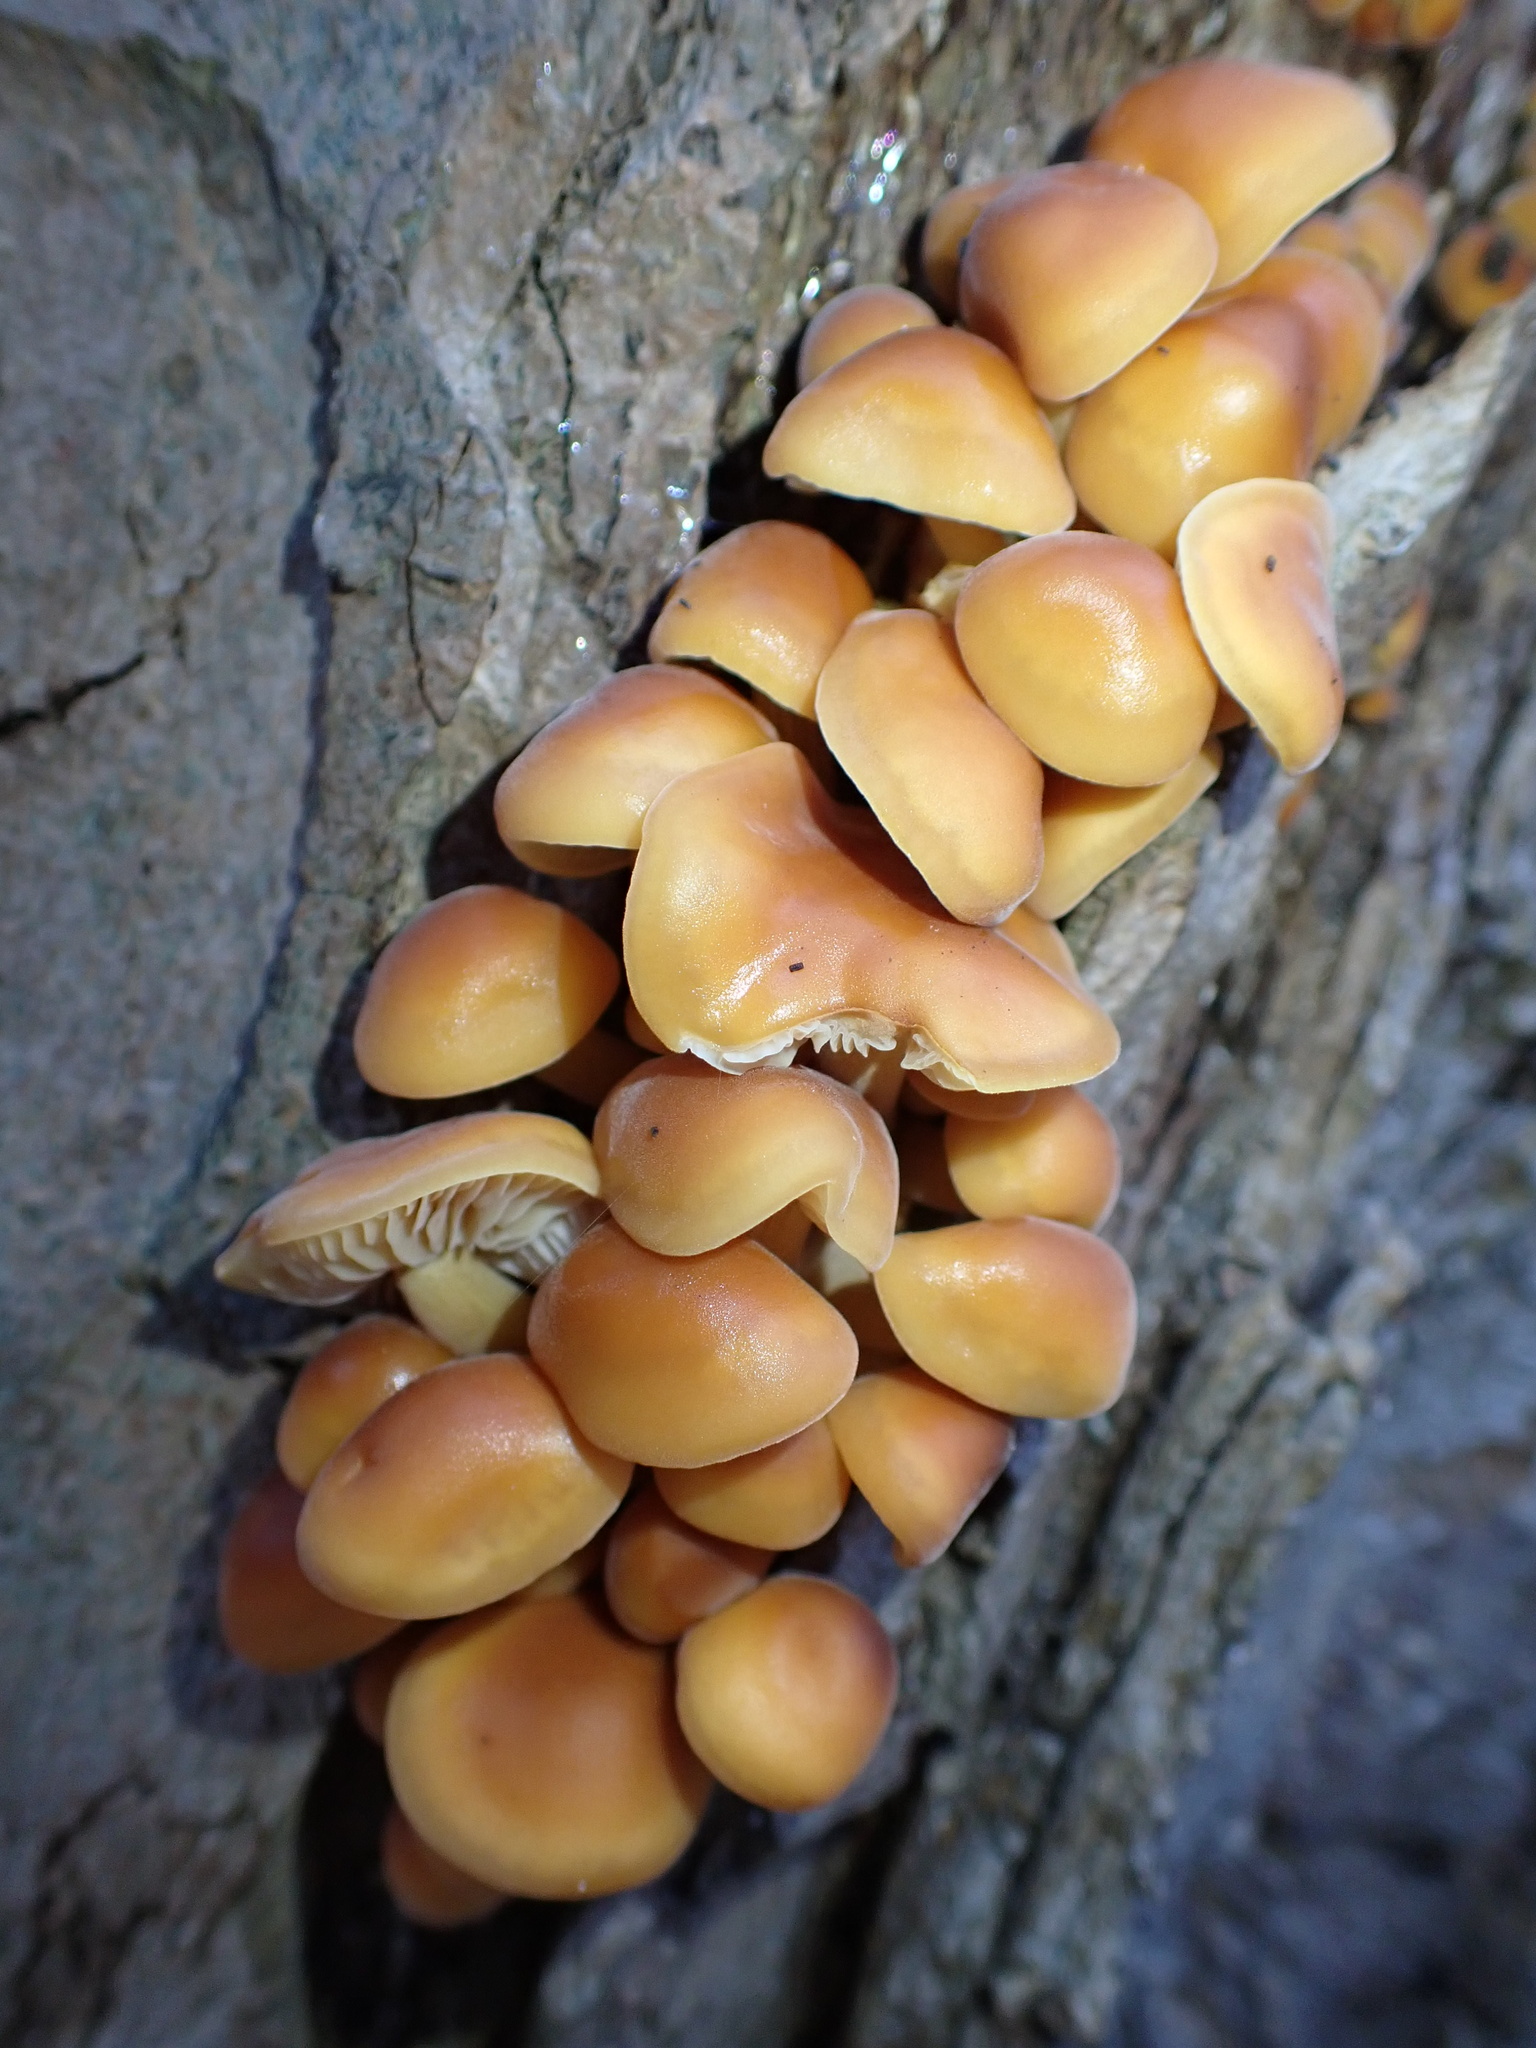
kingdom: Fungi
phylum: Basidiomycota
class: Agaricomycetes
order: Agaricales
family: Physalacriaceae
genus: Flammulina
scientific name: Flammulina
